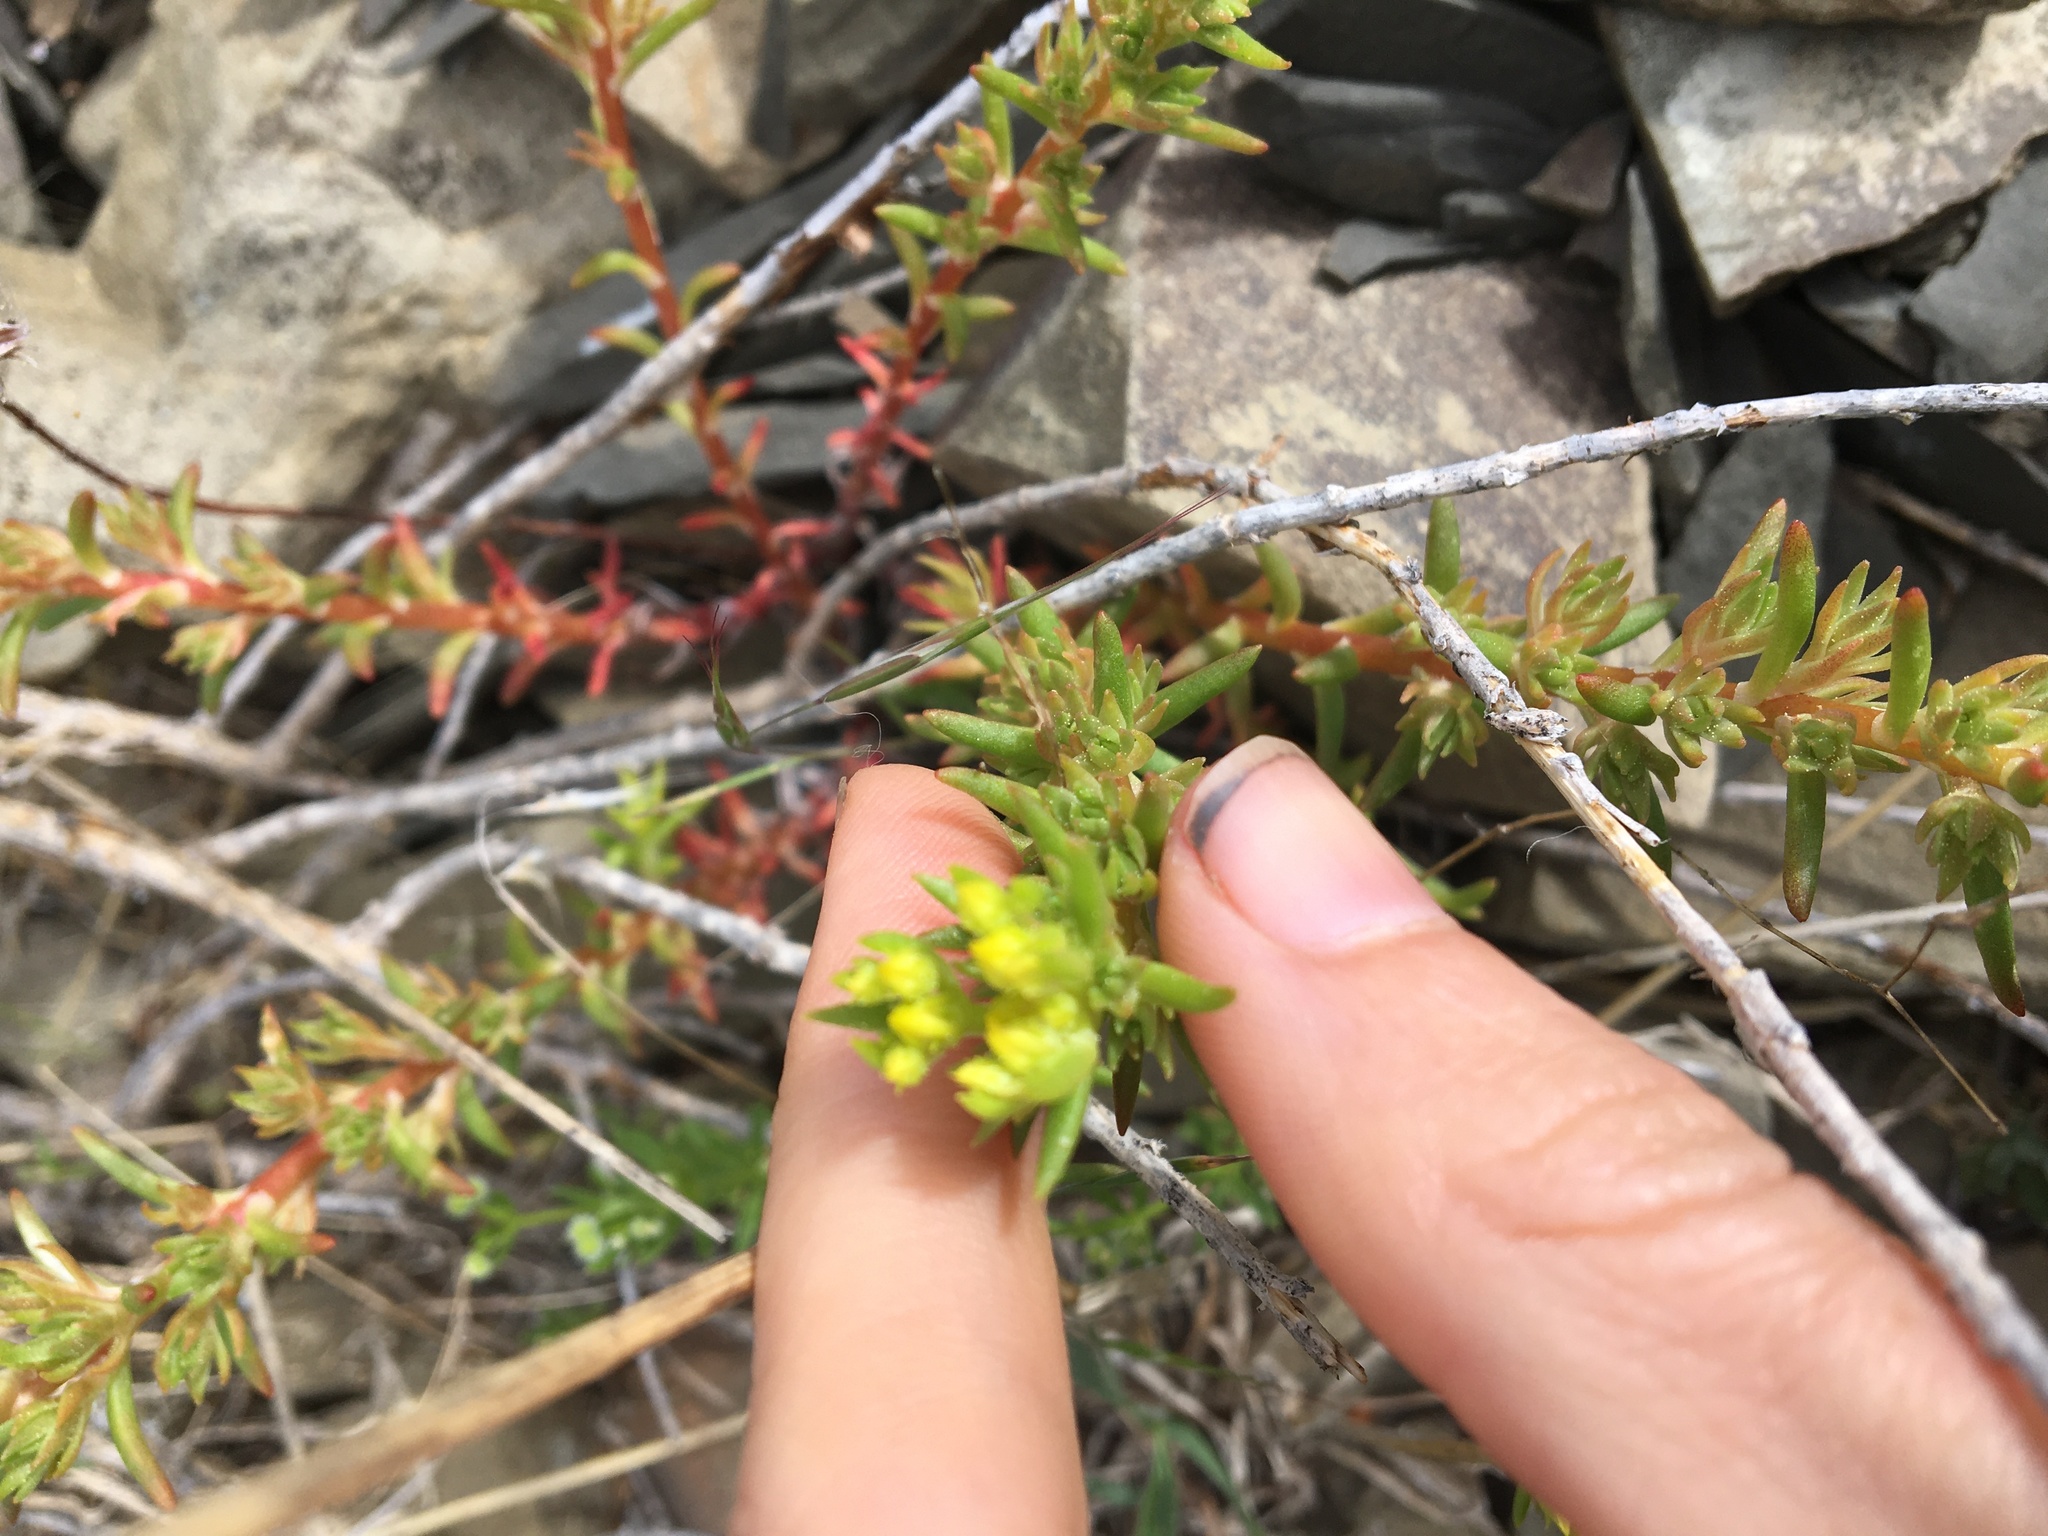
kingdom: Plantae
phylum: Tracheophyta
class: Magnoliopsida
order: Saxifragales
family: Crassulaceae
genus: Sedum
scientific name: Sedum stenopetalum
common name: Narrow-petaled stonecrop
